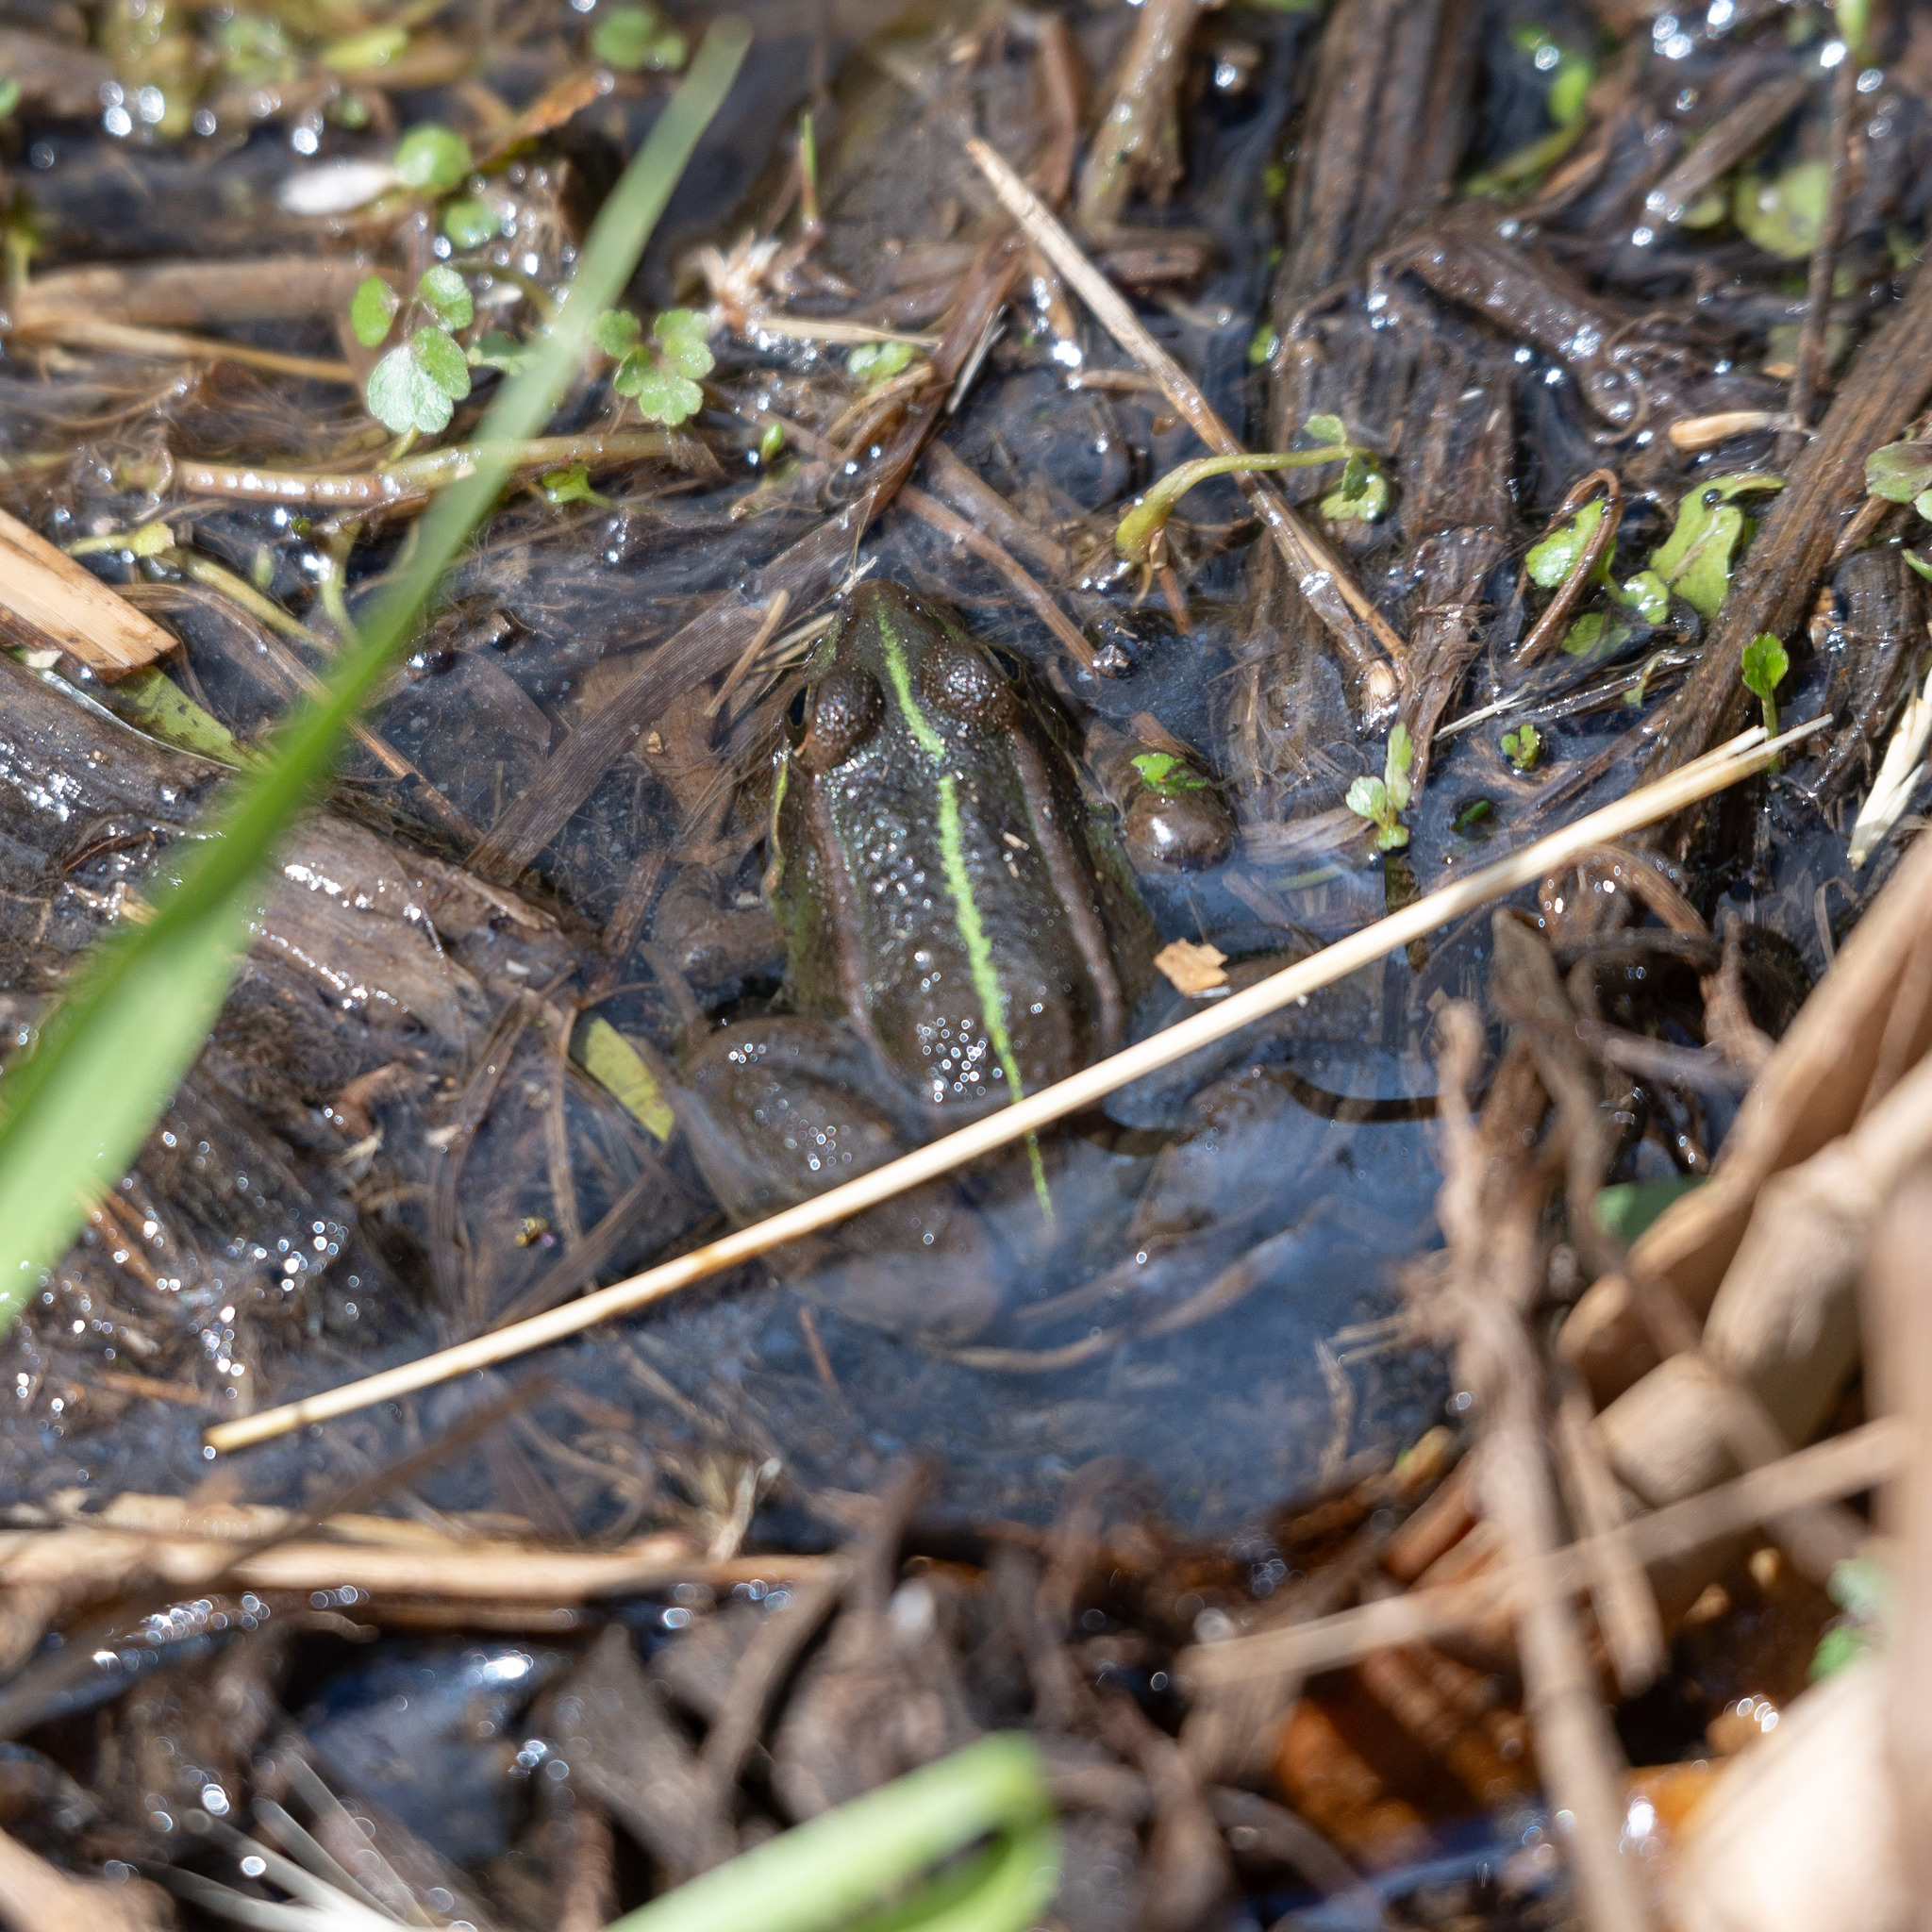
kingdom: Animalia
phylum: Chordata
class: Amphibia
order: Anura
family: Ranidae
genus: Pelophylax
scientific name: Pelophylax perezi
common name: Perez's frog
